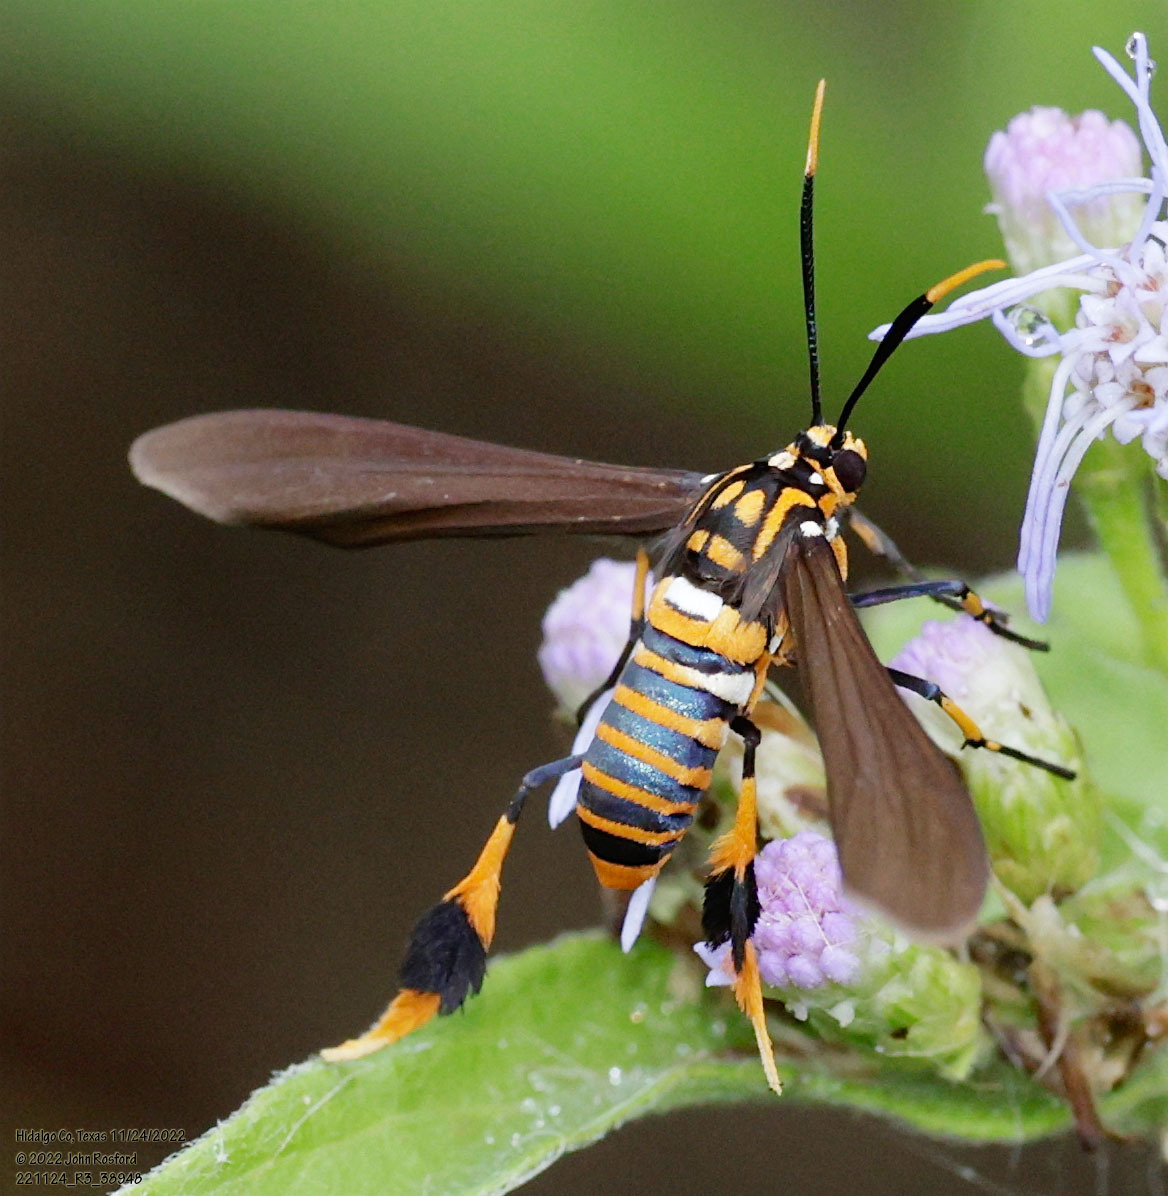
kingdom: Animalia
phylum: Arthropoda
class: Insecta
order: Lepidoptera
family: Erebidae
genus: Horama
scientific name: Horama panthalon
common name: Texas wasp moth
